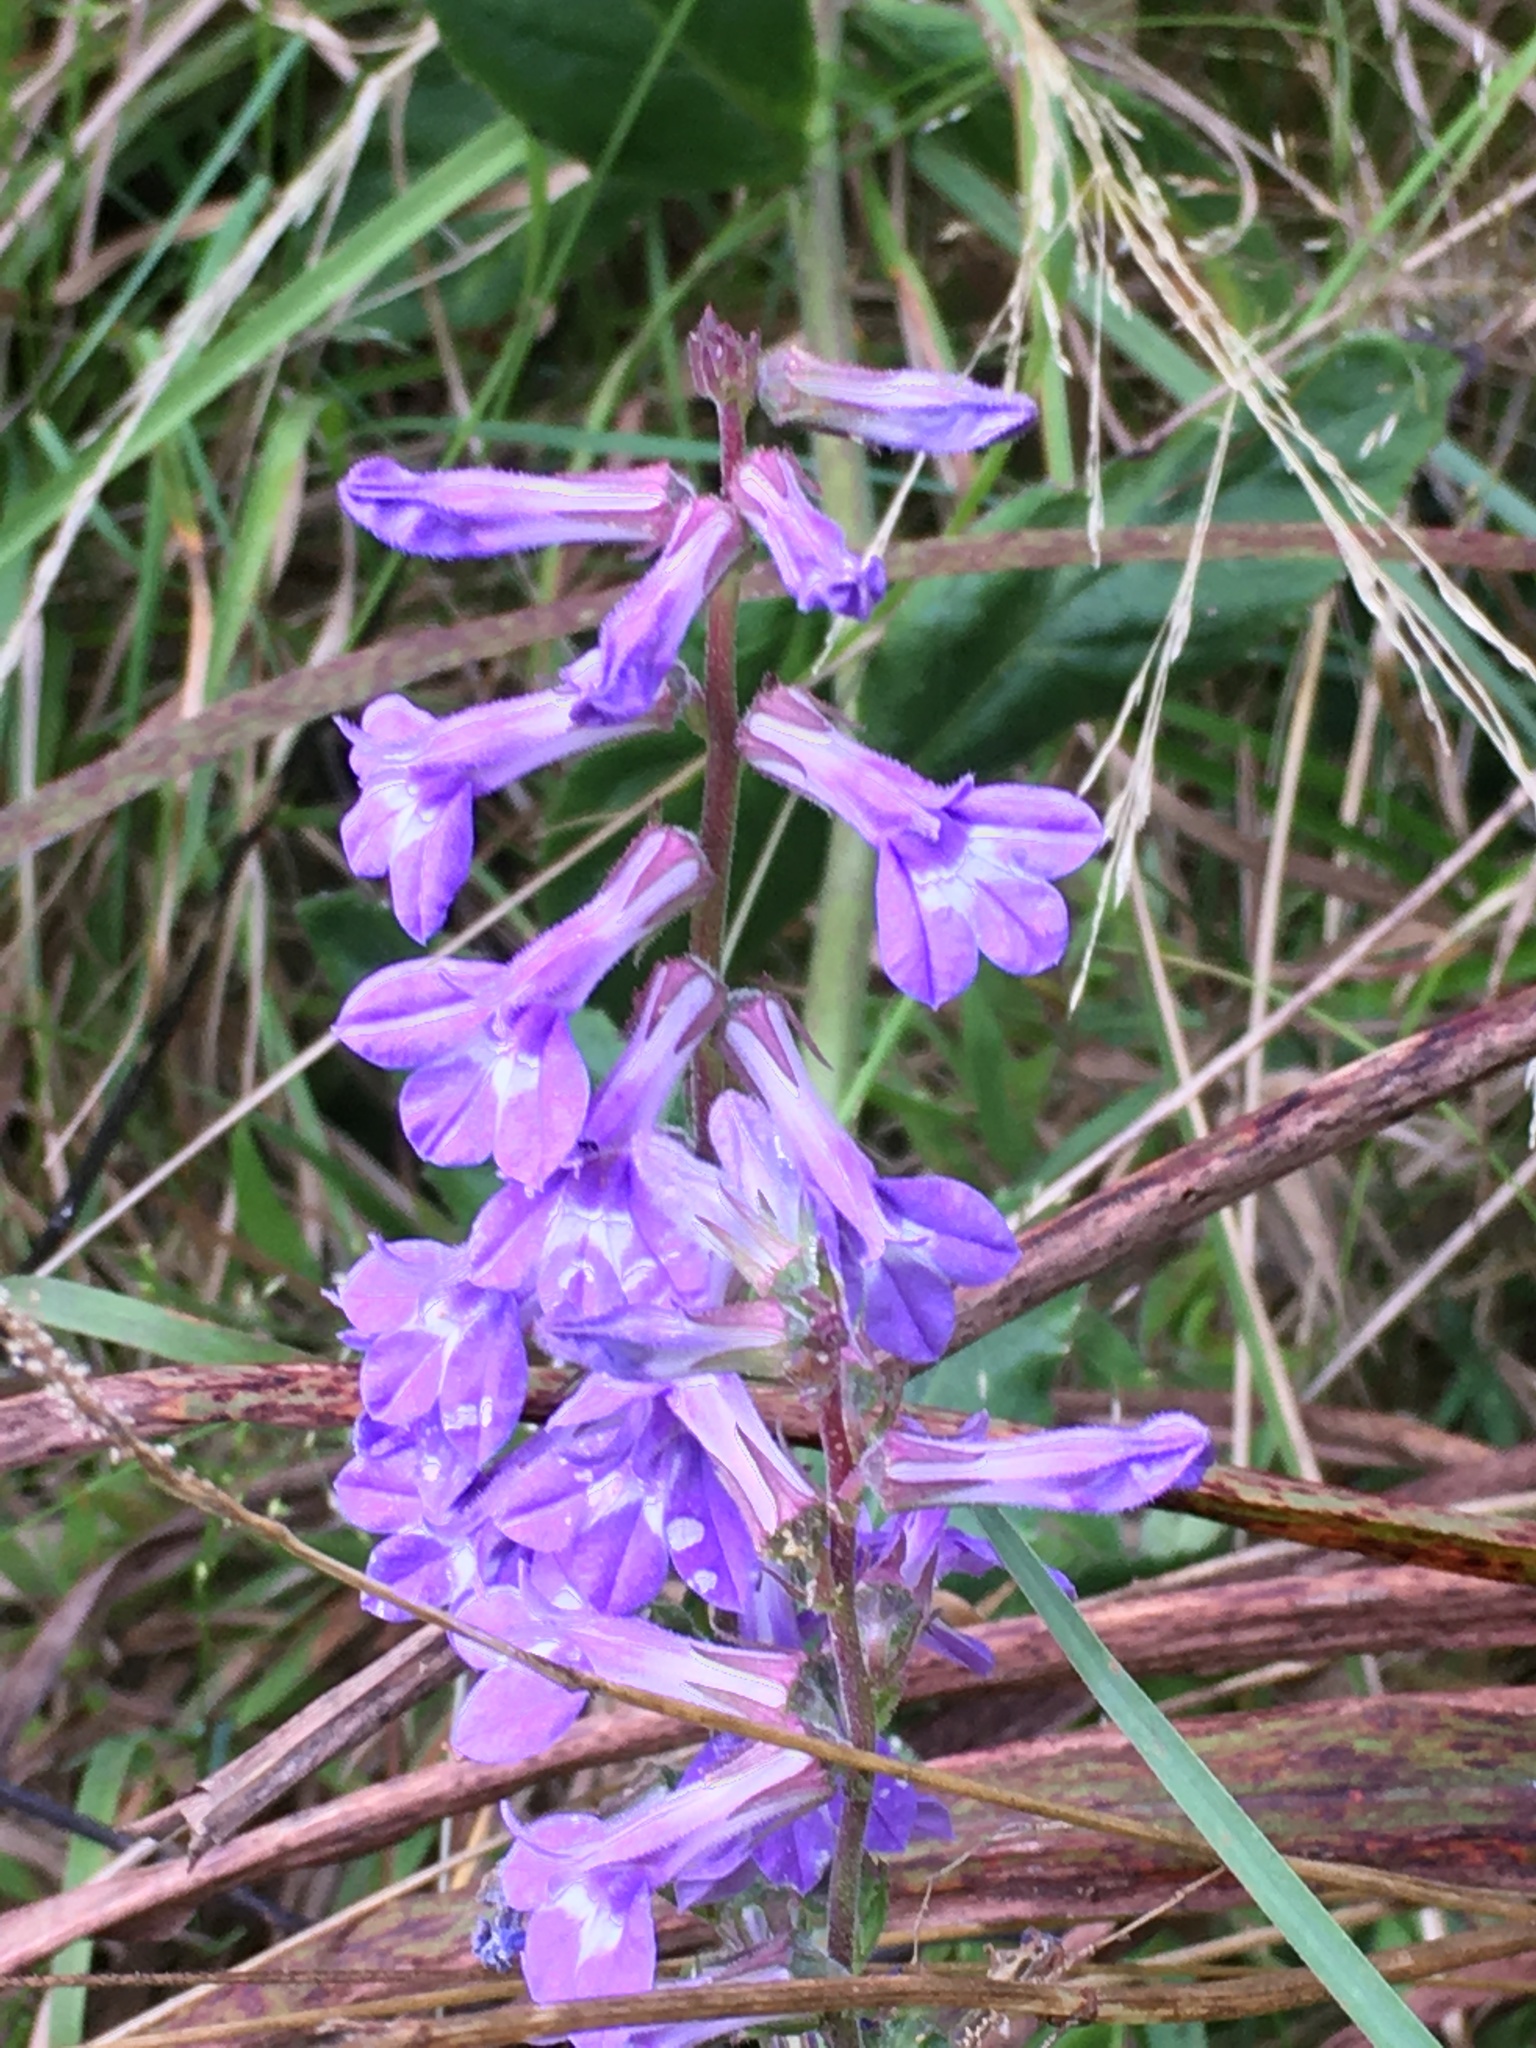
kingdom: Plantae
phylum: Tracheophyta
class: Magnoliopsida
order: Asterales
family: Campanulaceae
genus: Lobelia
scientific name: Lobelia puberula
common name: Purple dewdrop
